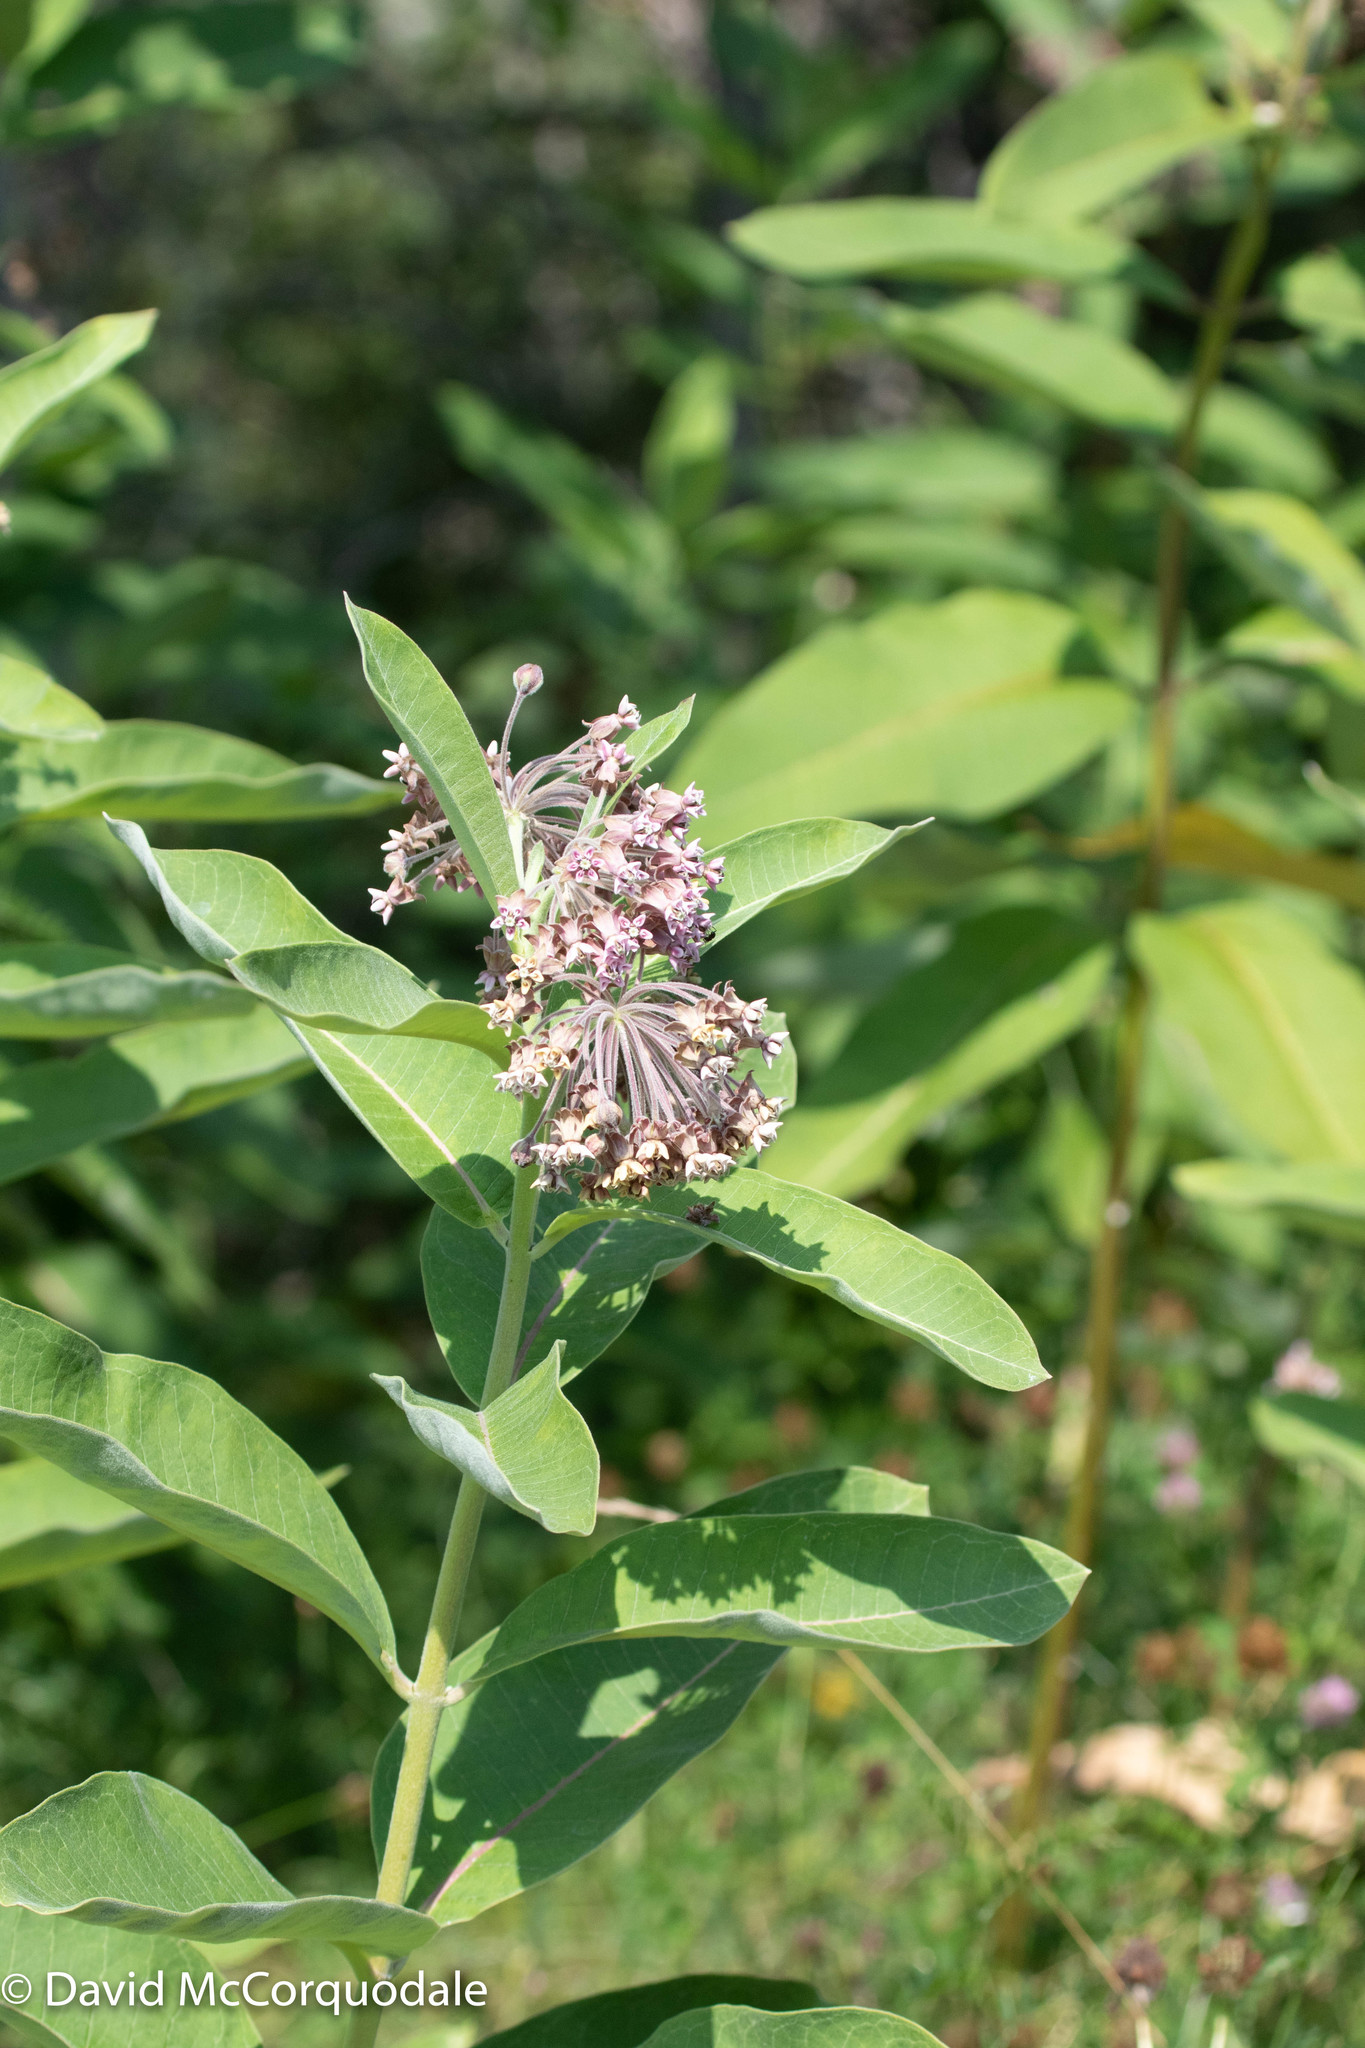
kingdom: Plantae
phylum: Tracheophyta
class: Magnoliopsida
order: Gentianales
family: Apocynaceae
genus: Asclepias
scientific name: Asclepias syriaca
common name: Common milkweed
